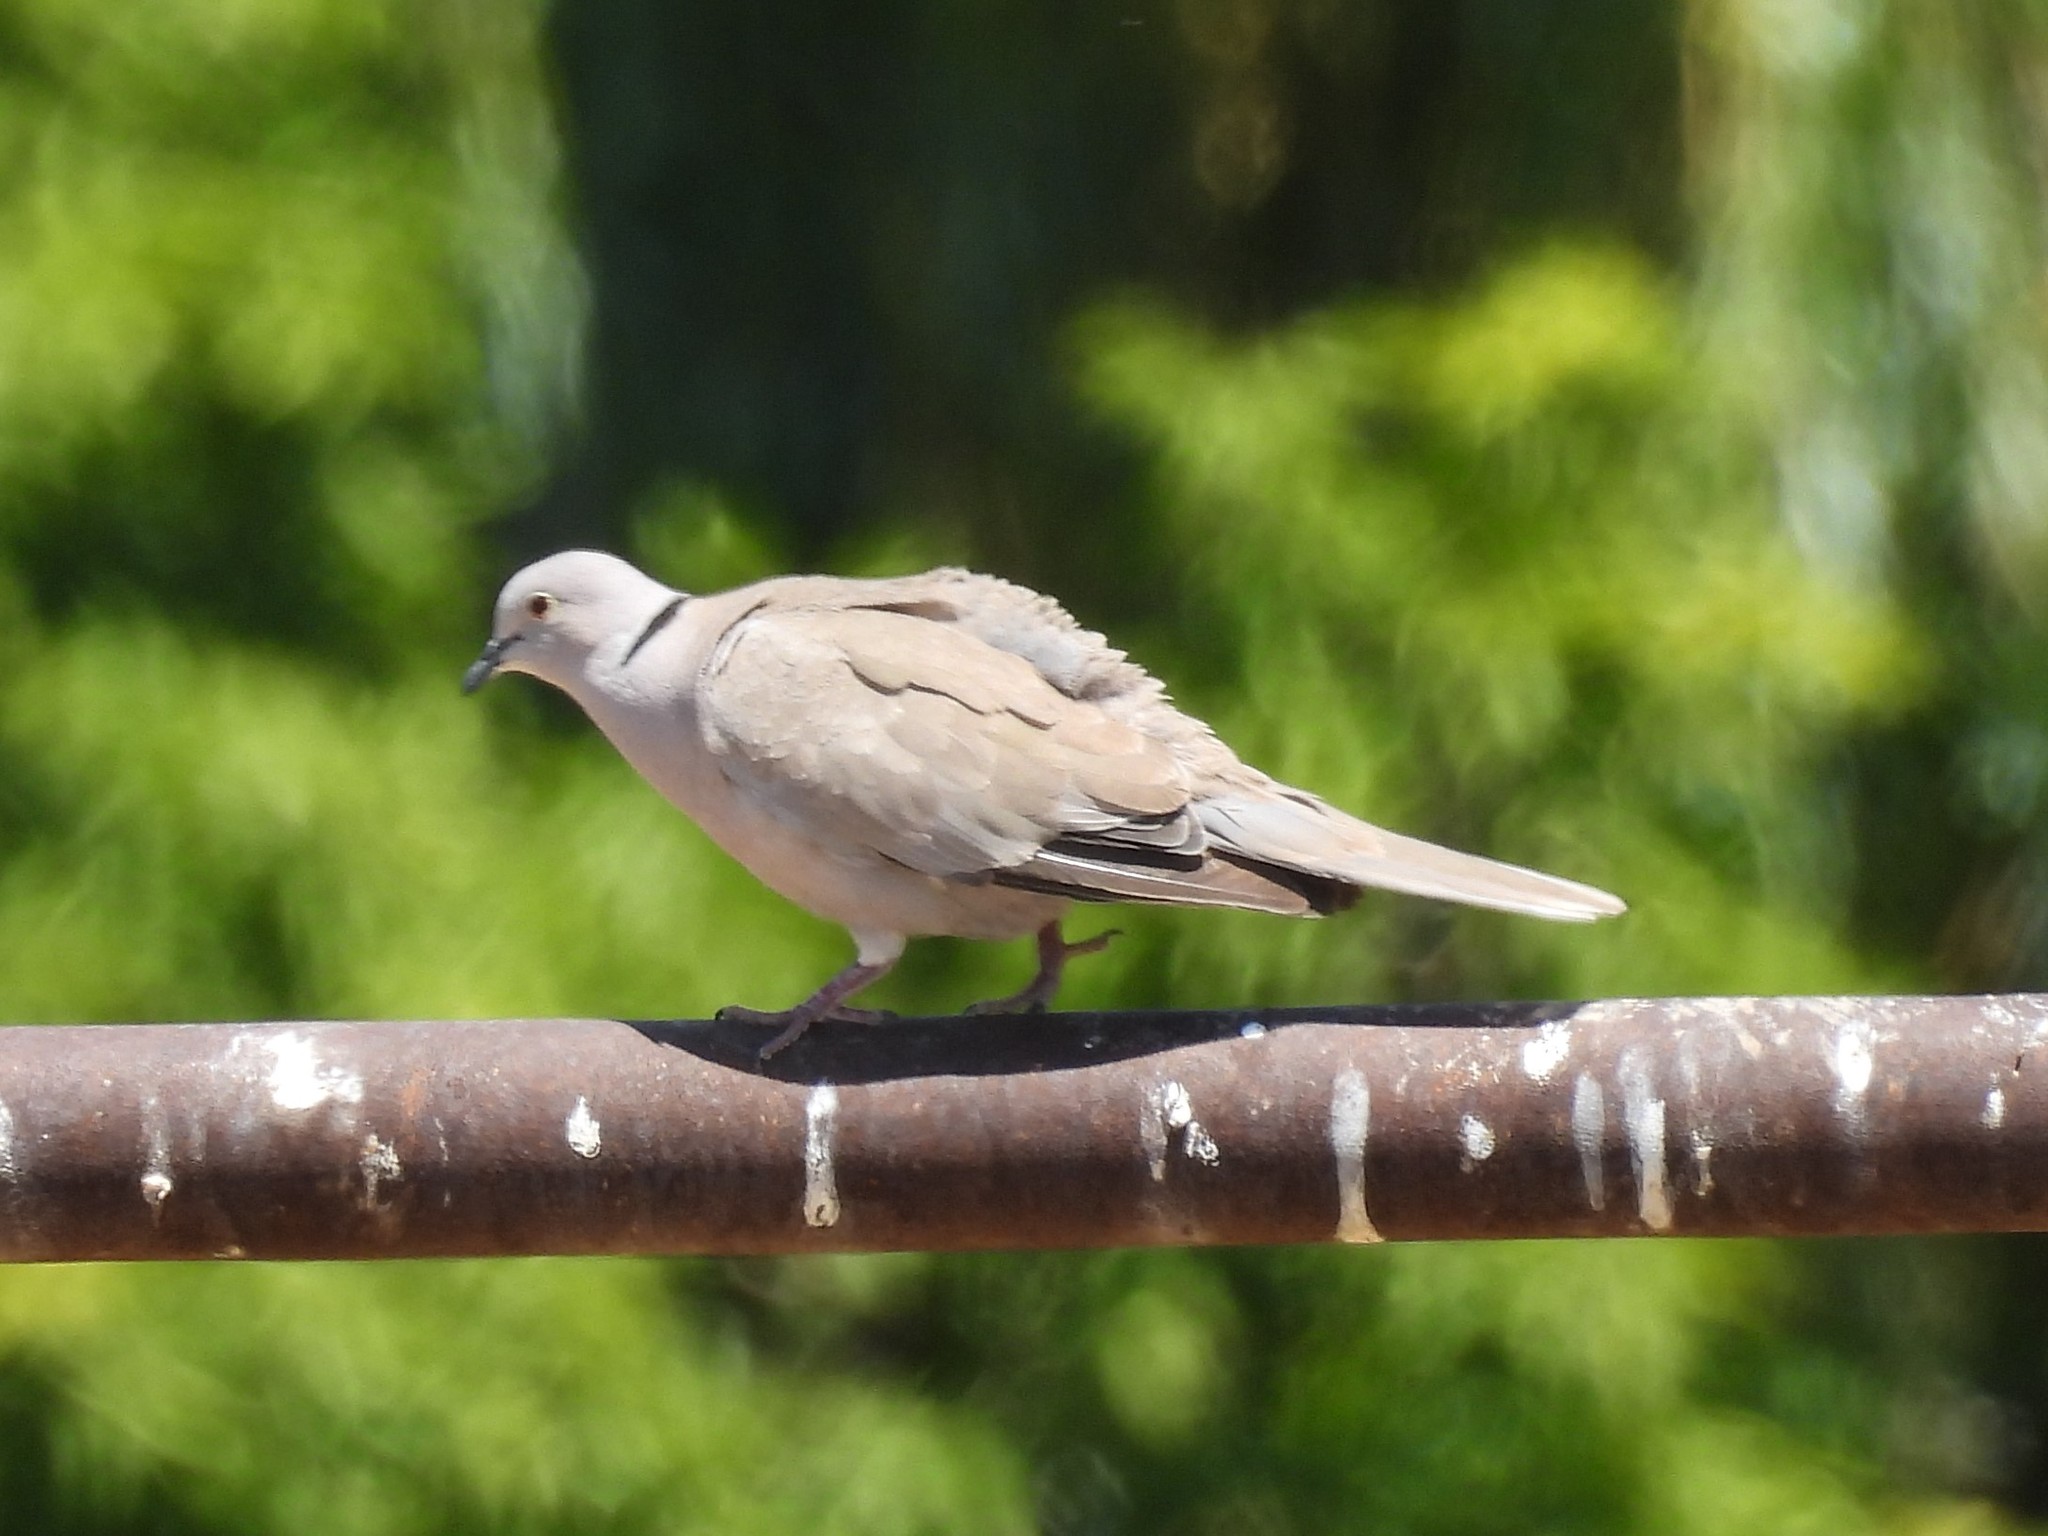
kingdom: Animalia
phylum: Chordata
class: Aves
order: Columbiformes
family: Columbidae
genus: Streptopelia
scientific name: Streptopelia decaocto
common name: Eurasian collared dove
